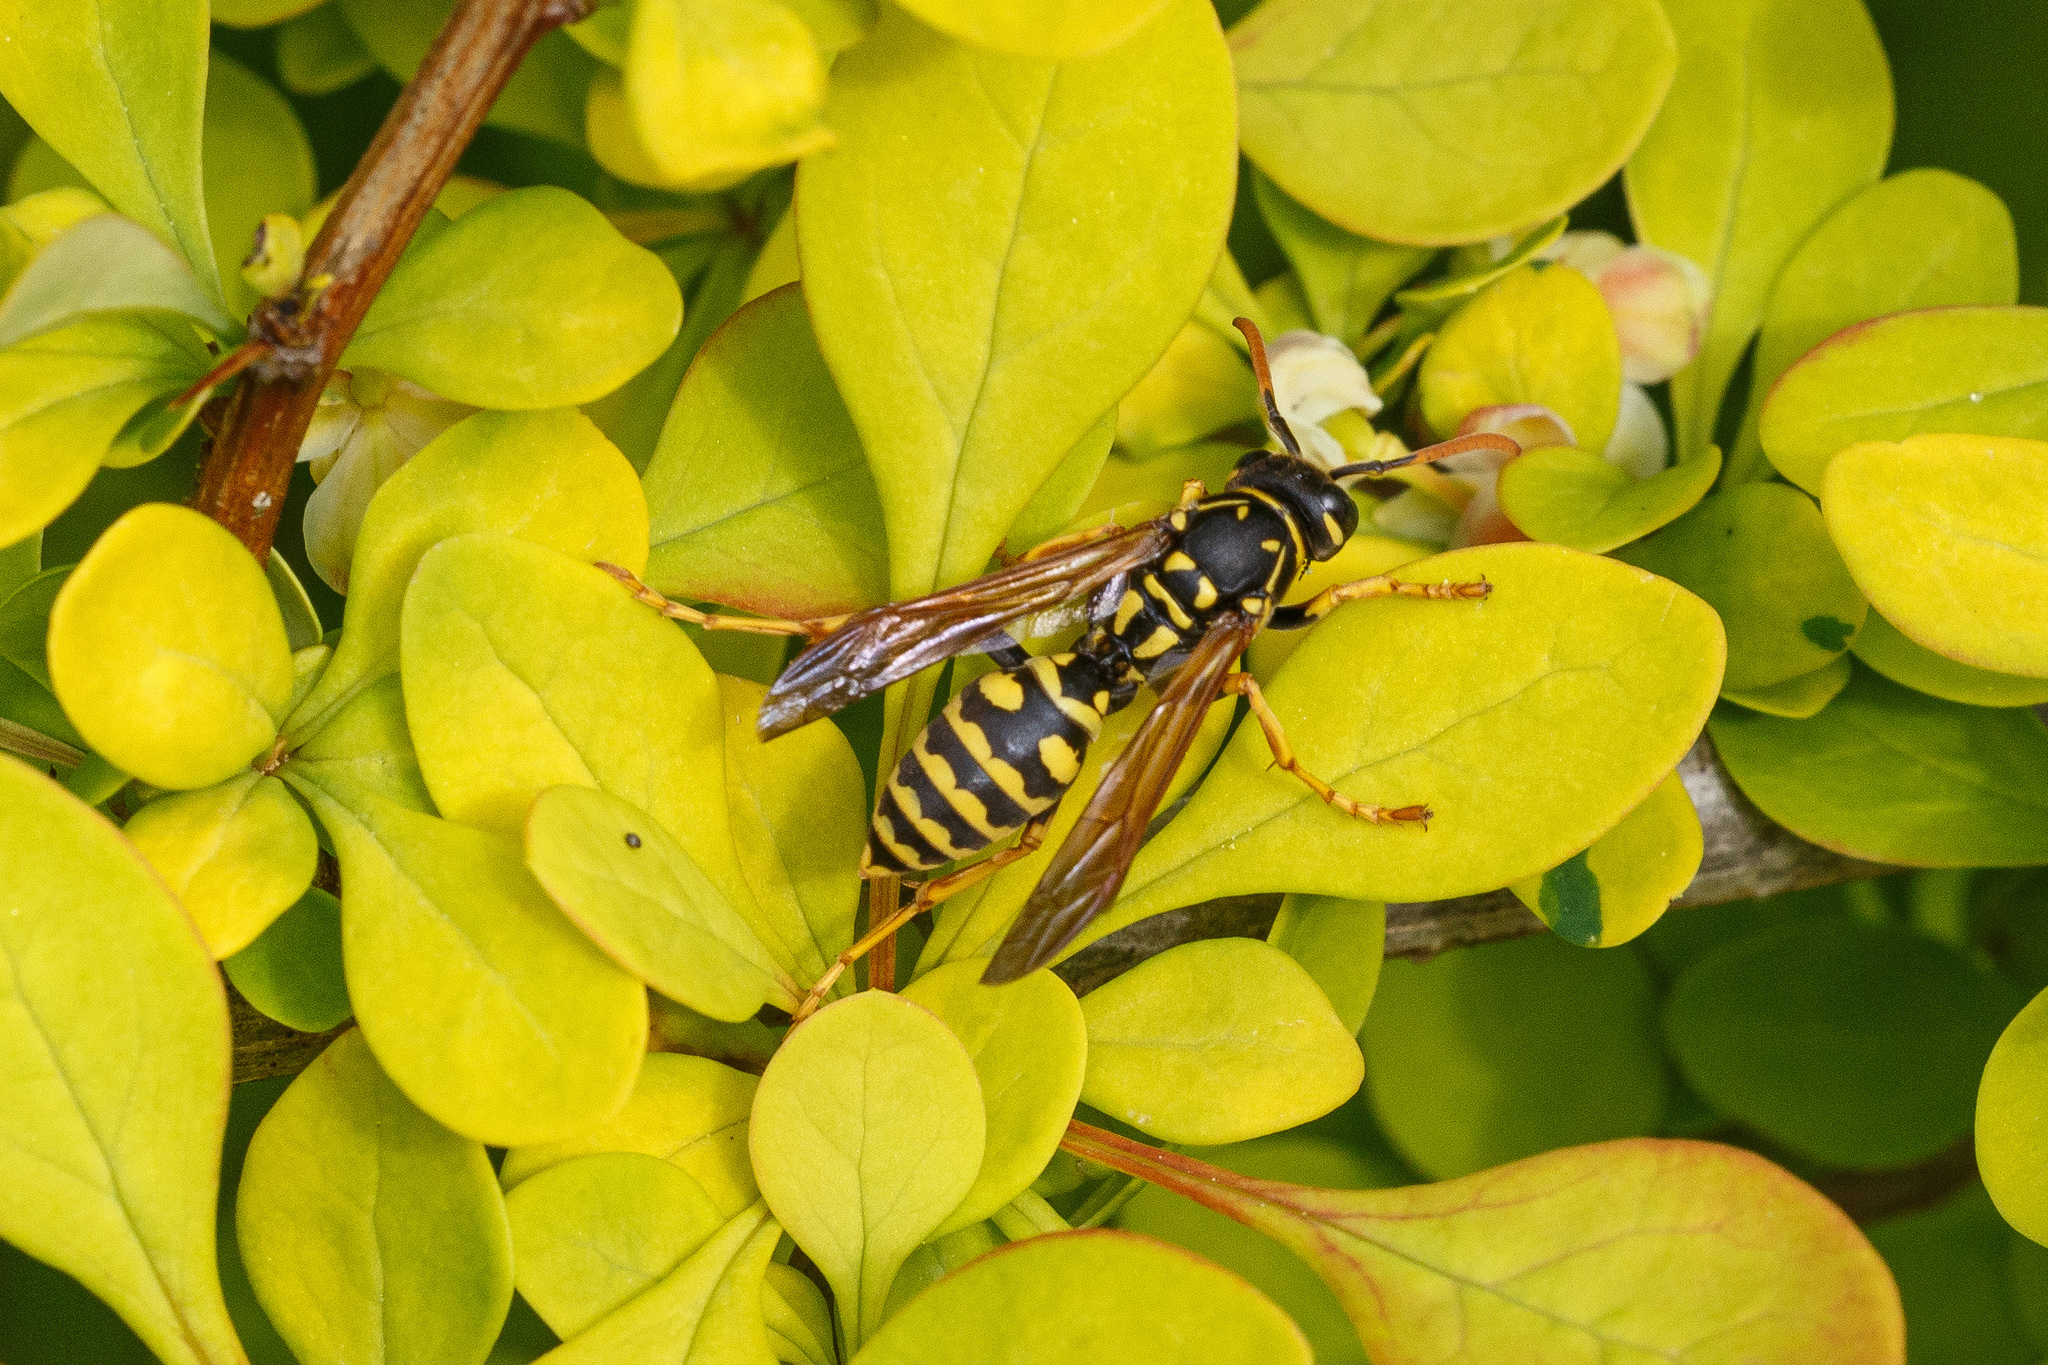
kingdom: Animalia
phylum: Arthropoda
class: Insecta
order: Hymenoptera
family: Eumenidae
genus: Polistes
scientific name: Polistes dominula
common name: Paper wasp
